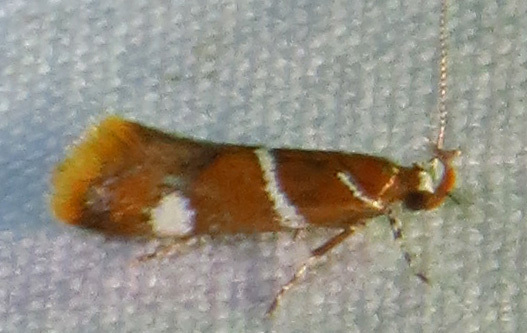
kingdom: Animalia
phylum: Arthropoda
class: Insecta
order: Lepidoptera
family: Oecophoridae
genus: Promalactis
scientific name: Promalactis suzukiella
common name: Moth
